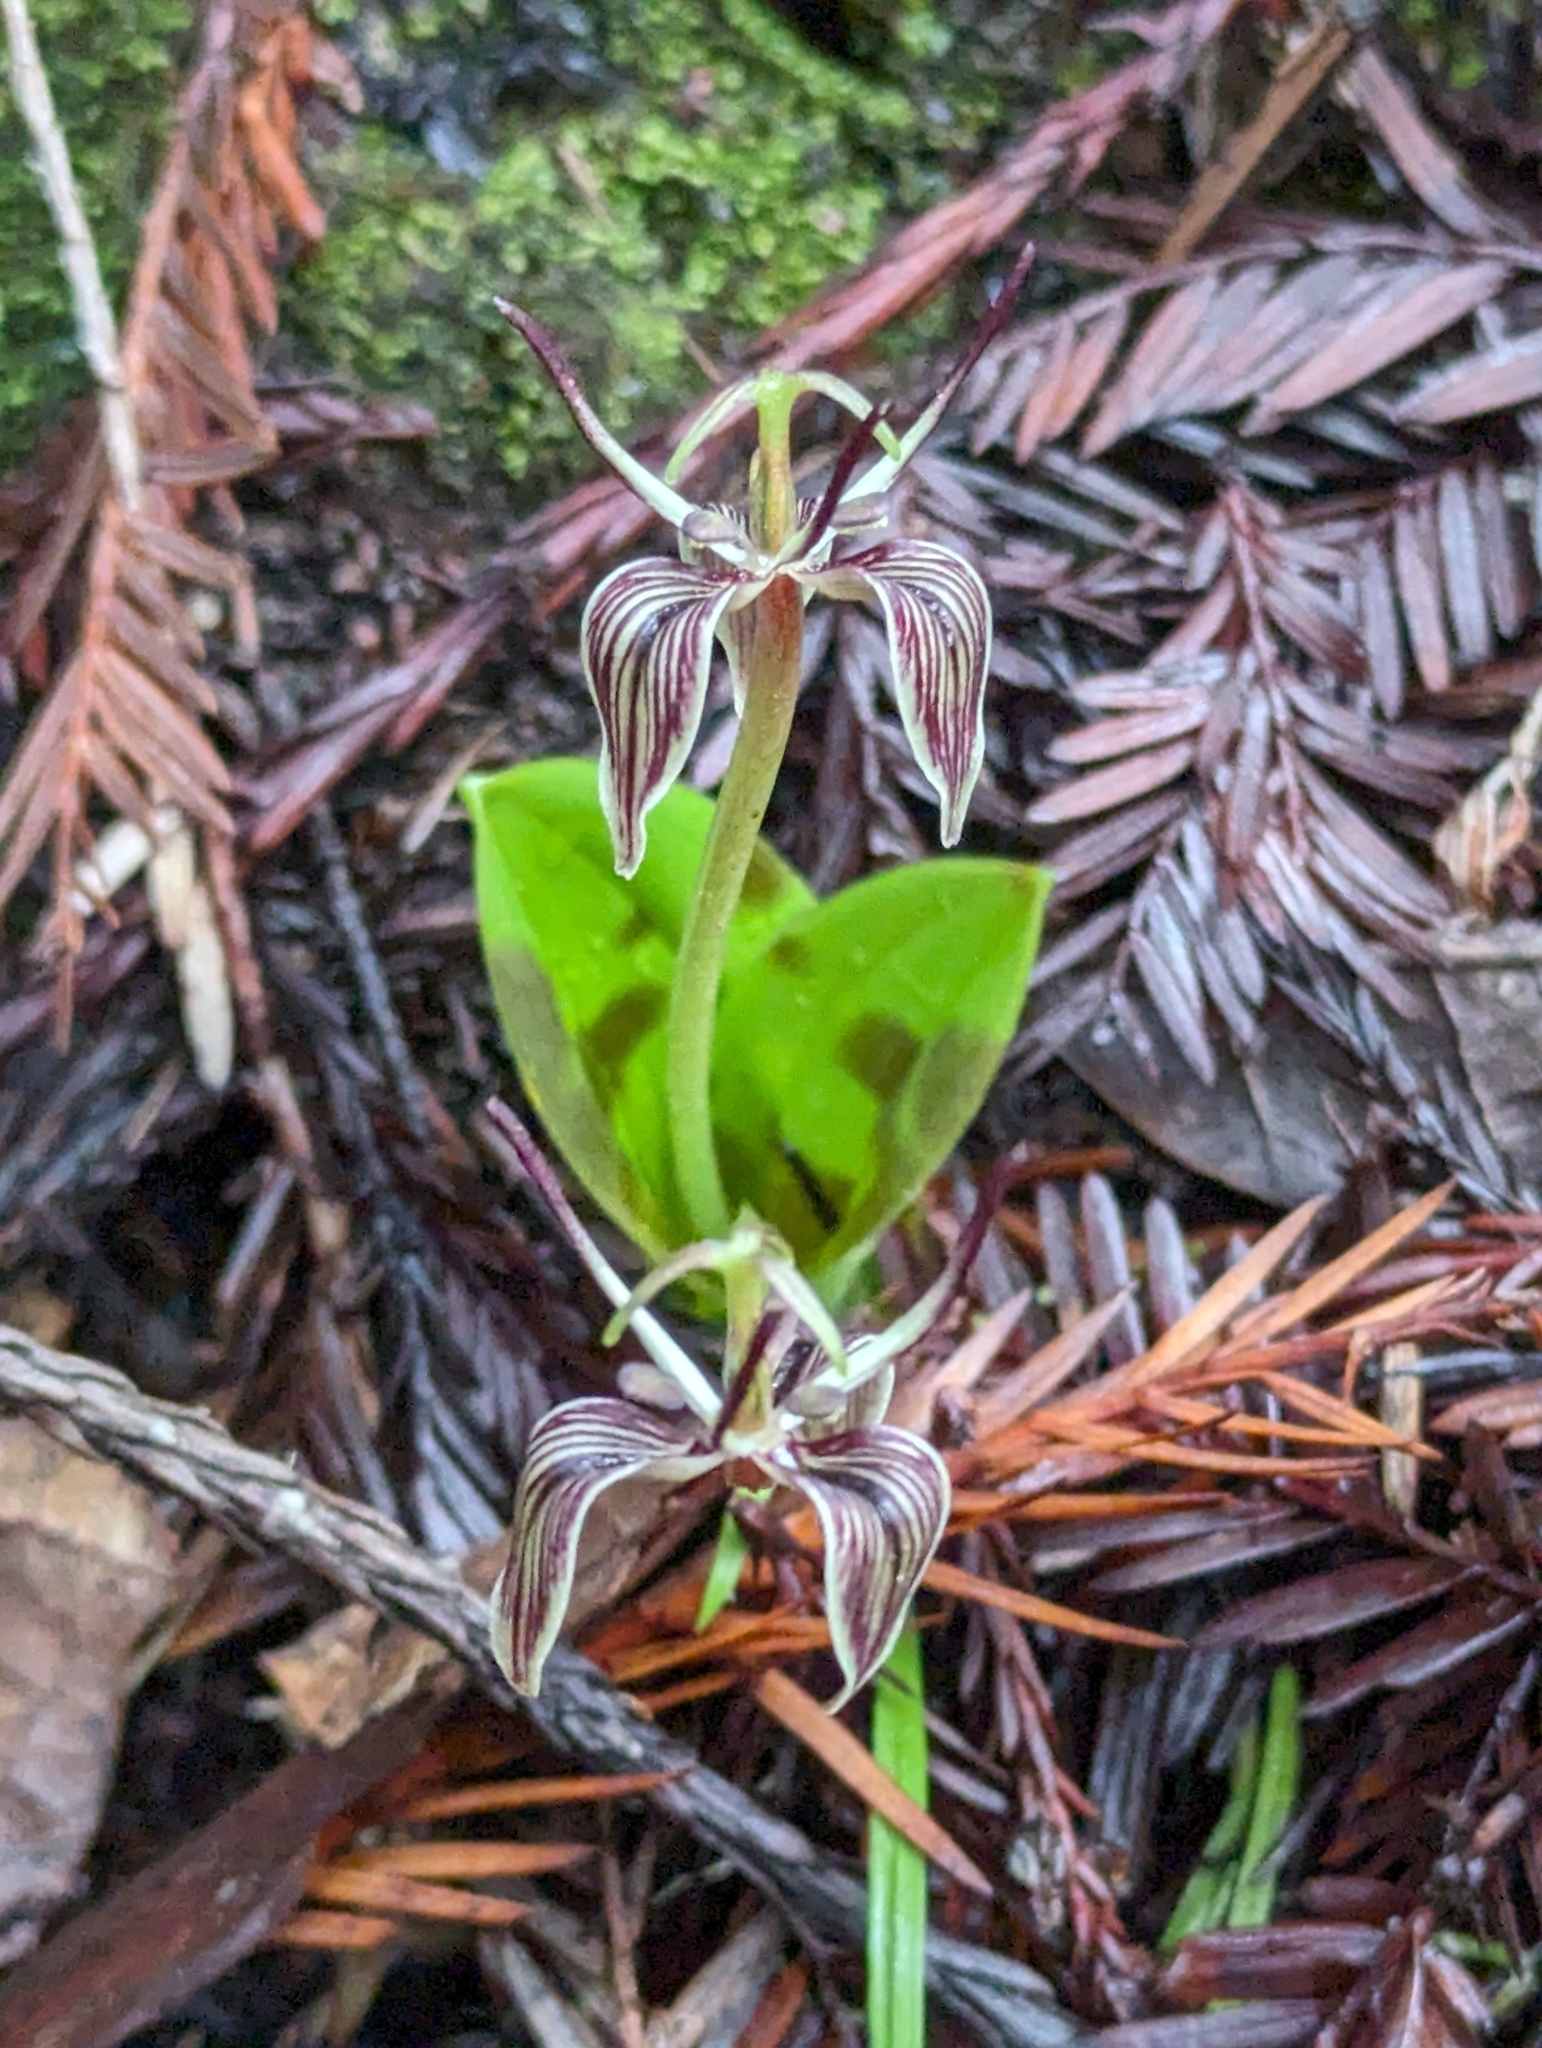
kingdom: Plantae
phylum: Tracheophyta
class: Liliopsida
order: Liliales
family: Liliaceae
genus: Scoliopus
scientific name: Scoliopus bigelovii
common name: Foetid adder's-tongue
